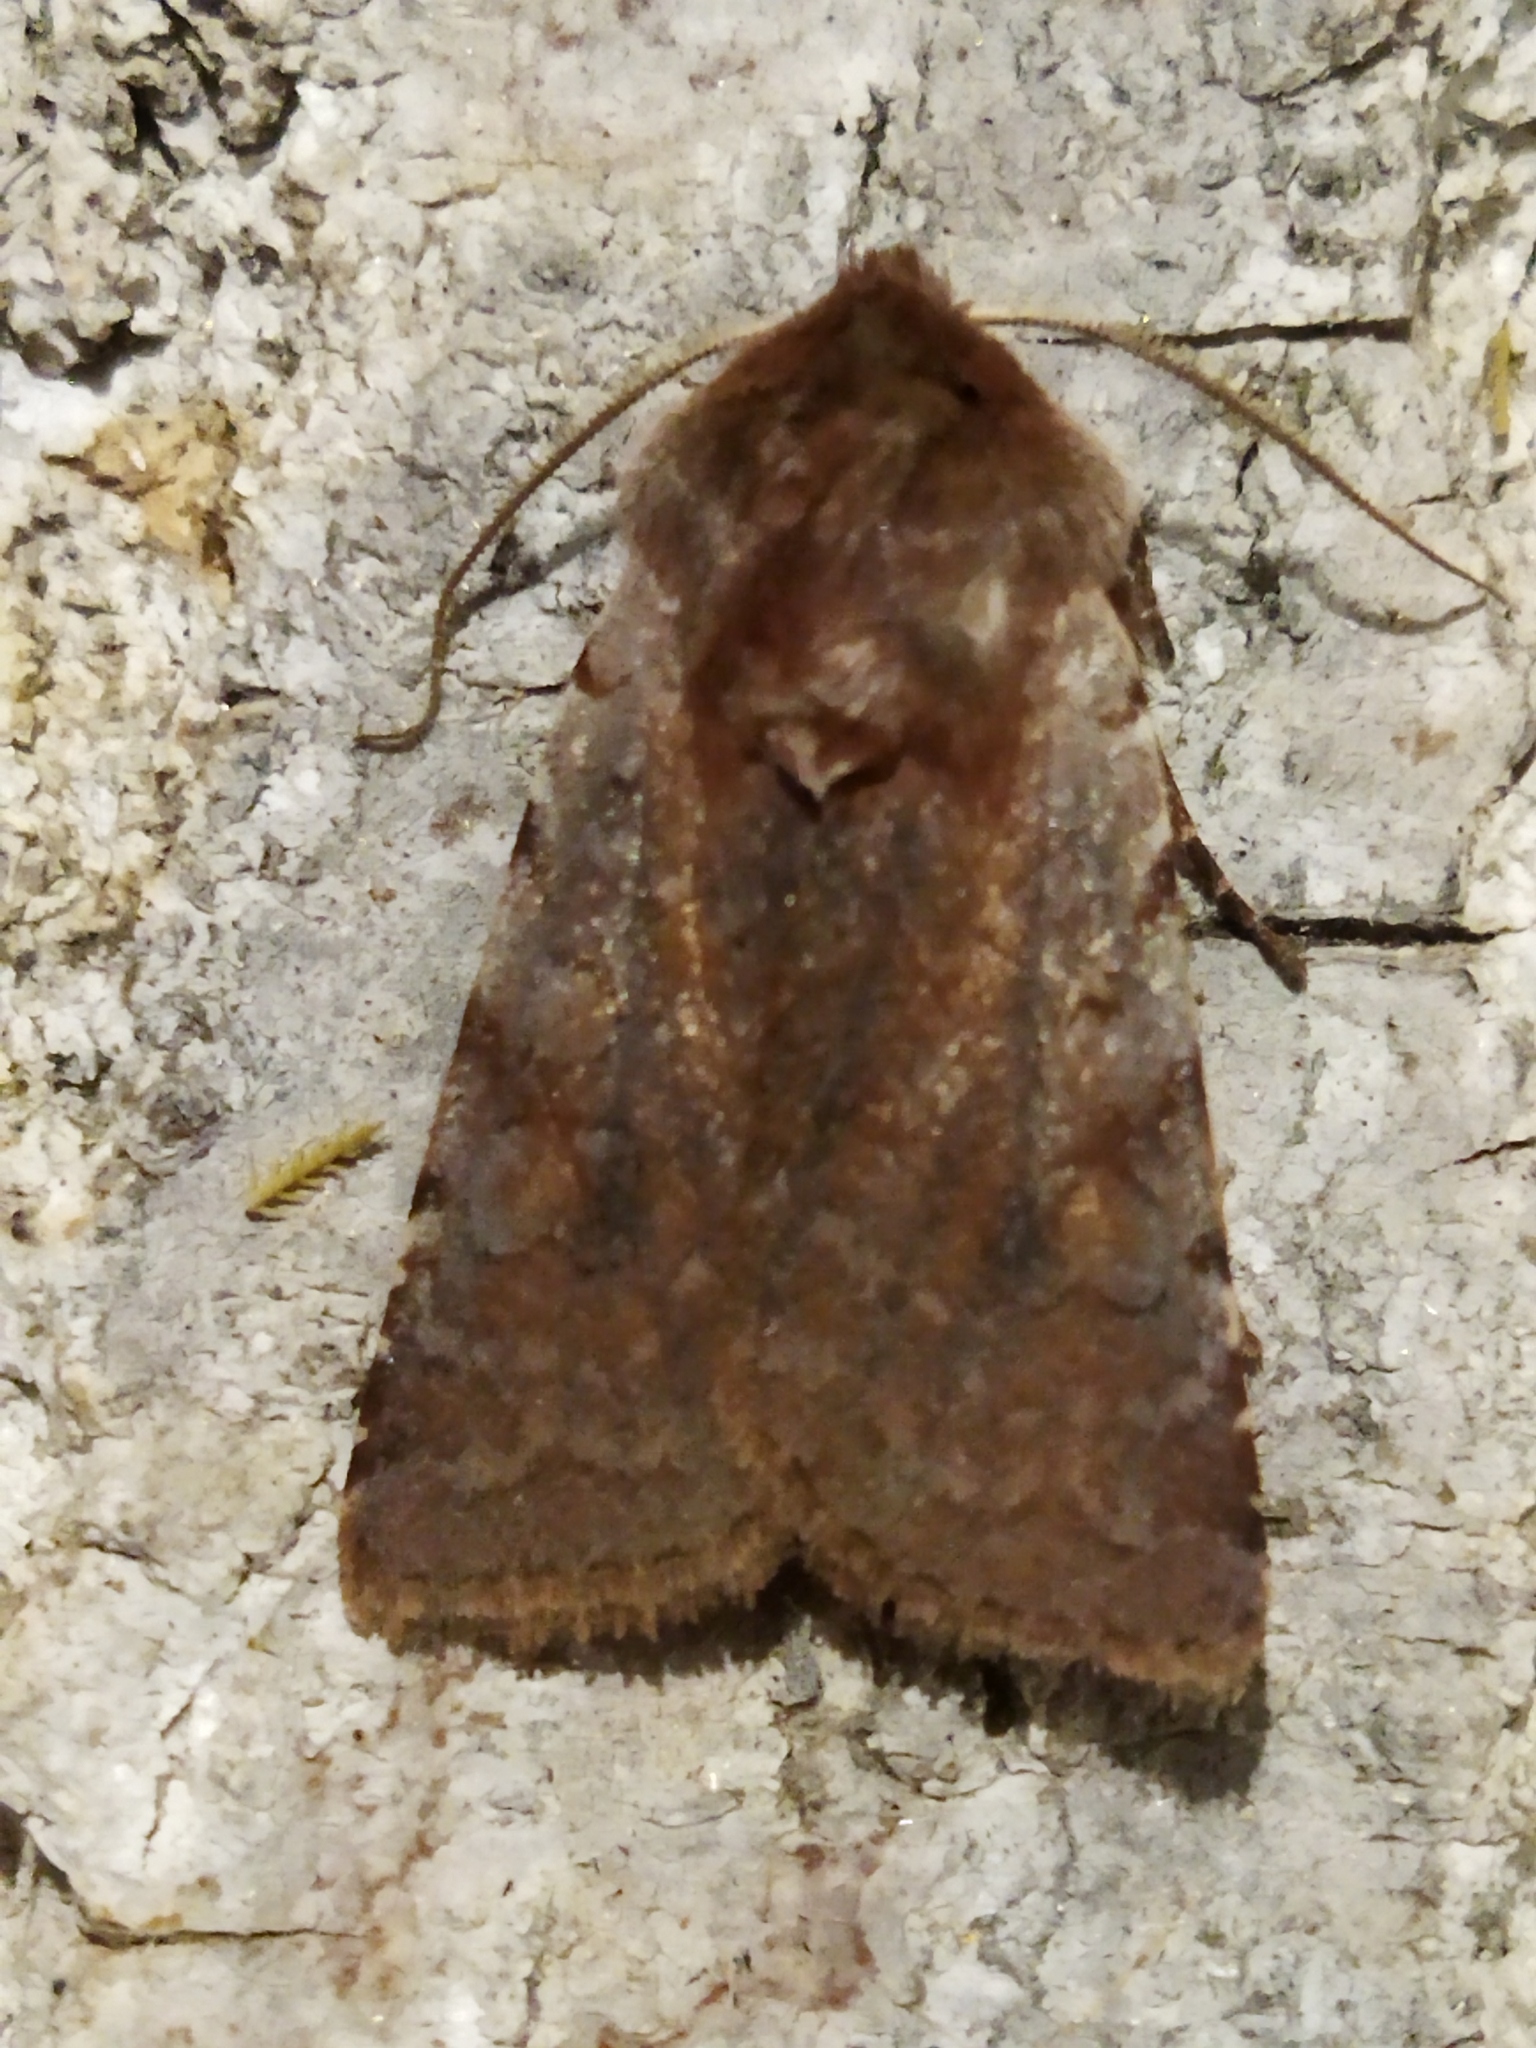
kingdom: Animalia
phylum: Arthropoda
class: Insecta
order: Lepidoptera
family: Noctuidae
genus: Cerastis
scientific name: Cerastis rubricosa
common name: Red chestnut
